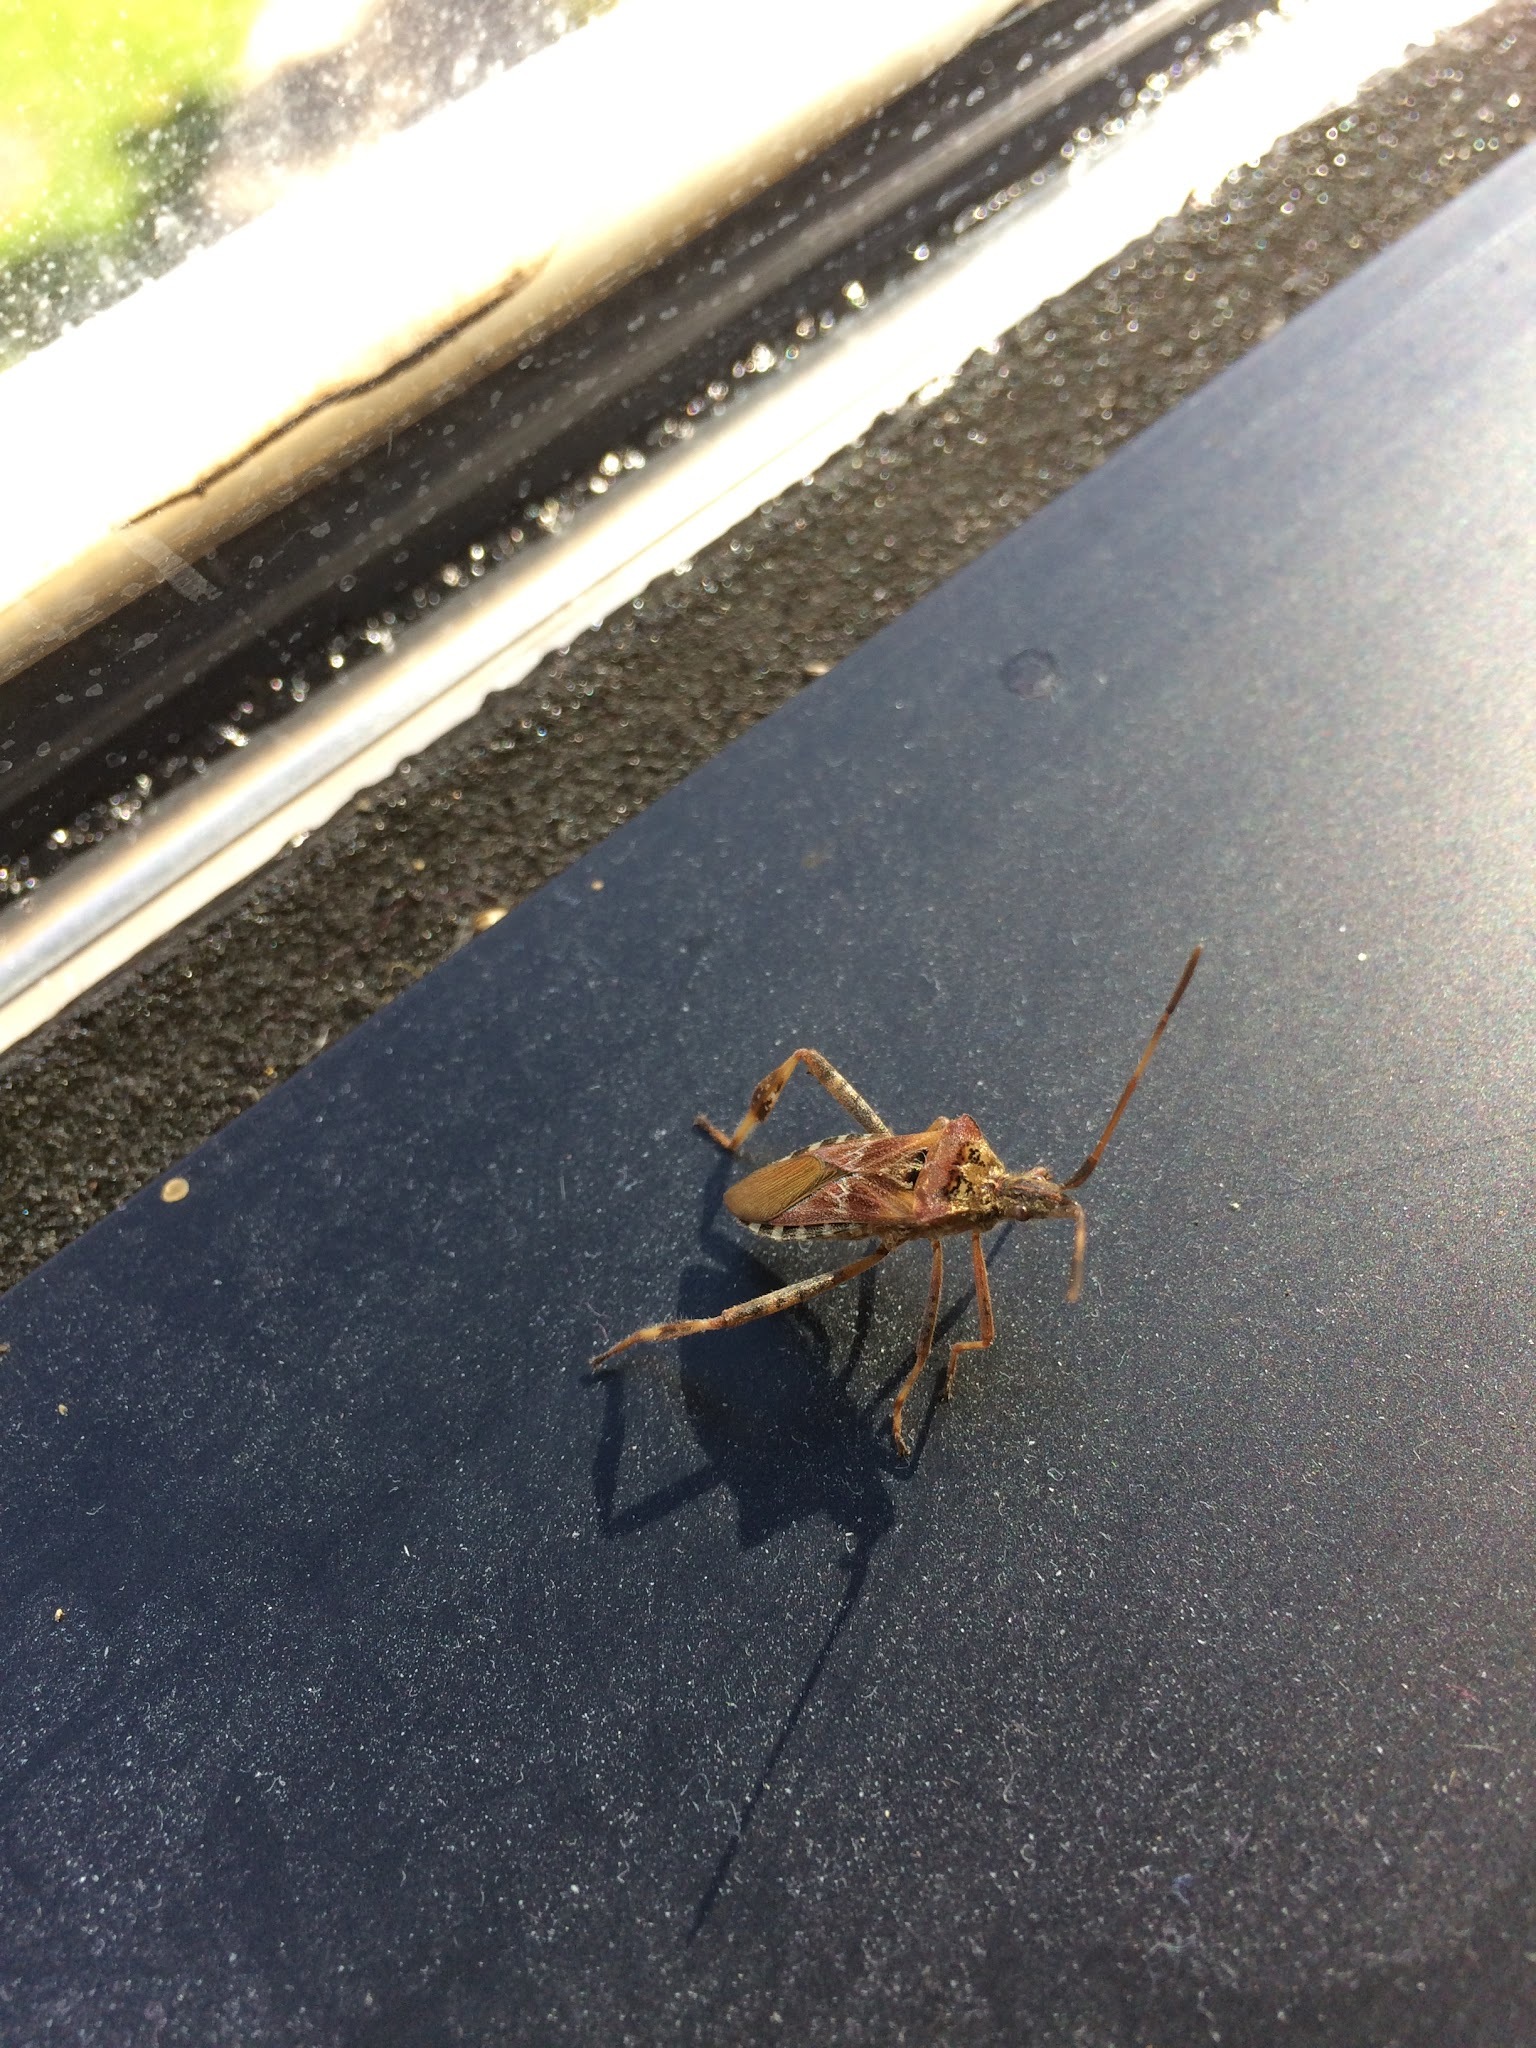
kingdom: Animalia
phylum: Arthropoda
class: Insecta
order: Hemiptera
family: Coreidae
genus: Leptoglossus
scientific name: Leptoglossus occidentalis
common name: Western conifer-seed bug
